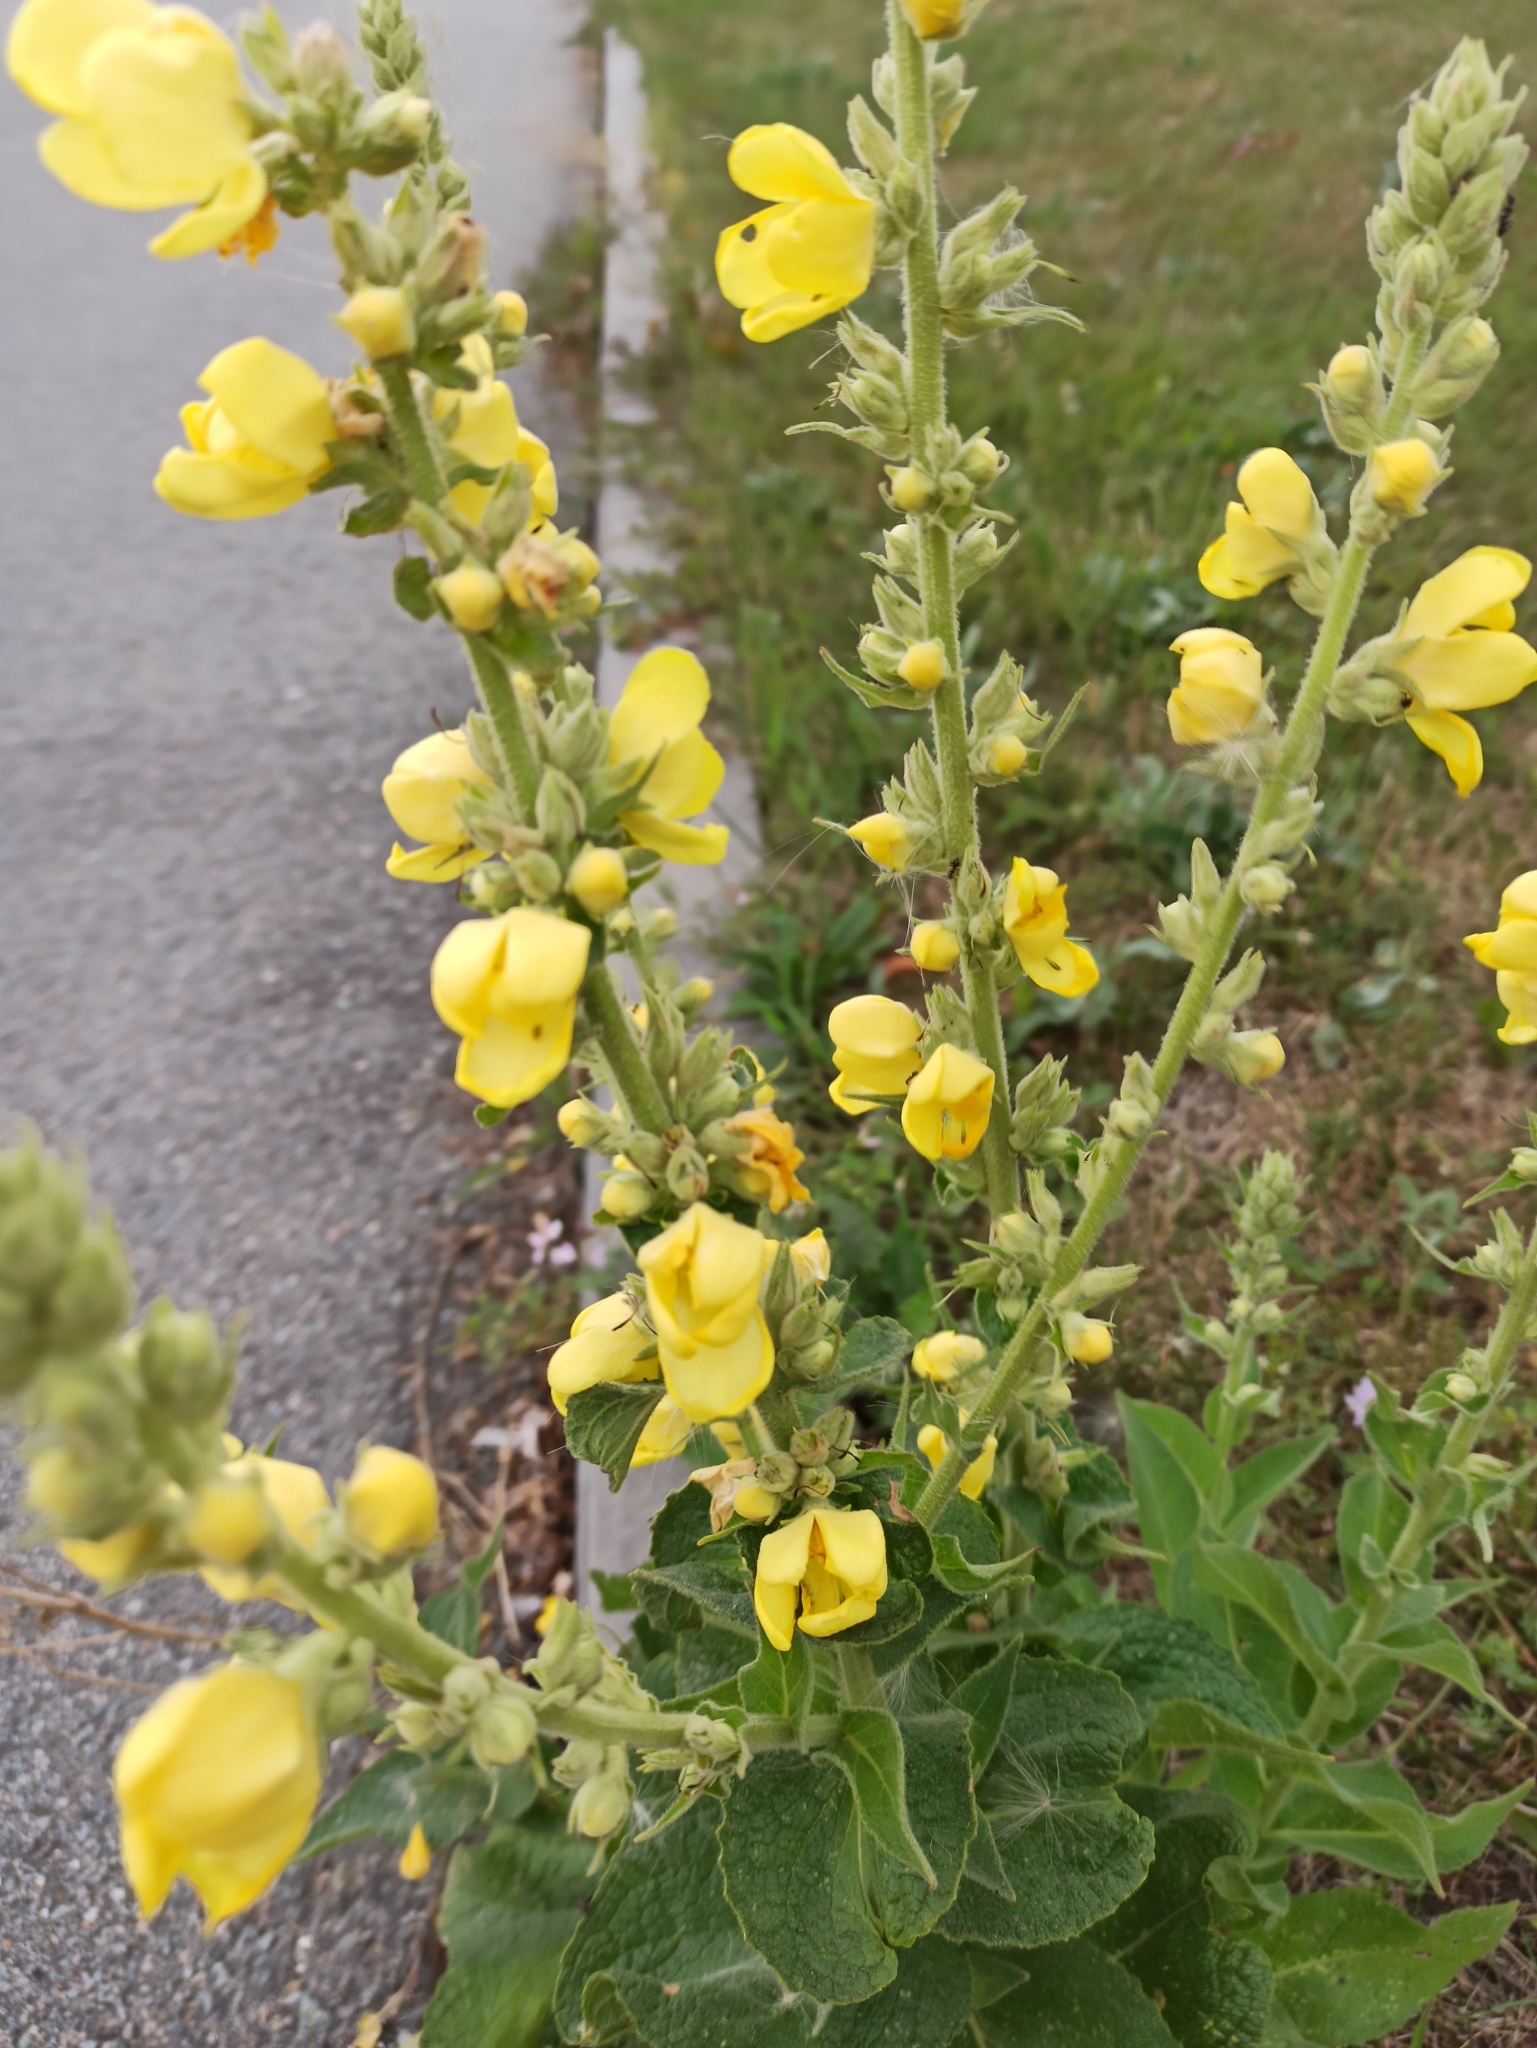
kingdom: Plantae
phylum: Tracheophyta
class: Magnoliopsida
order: Lamiales
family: Scrophulariaceae
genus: Verbascum
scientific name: Verbascum phlomoides
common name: Orange mullein
